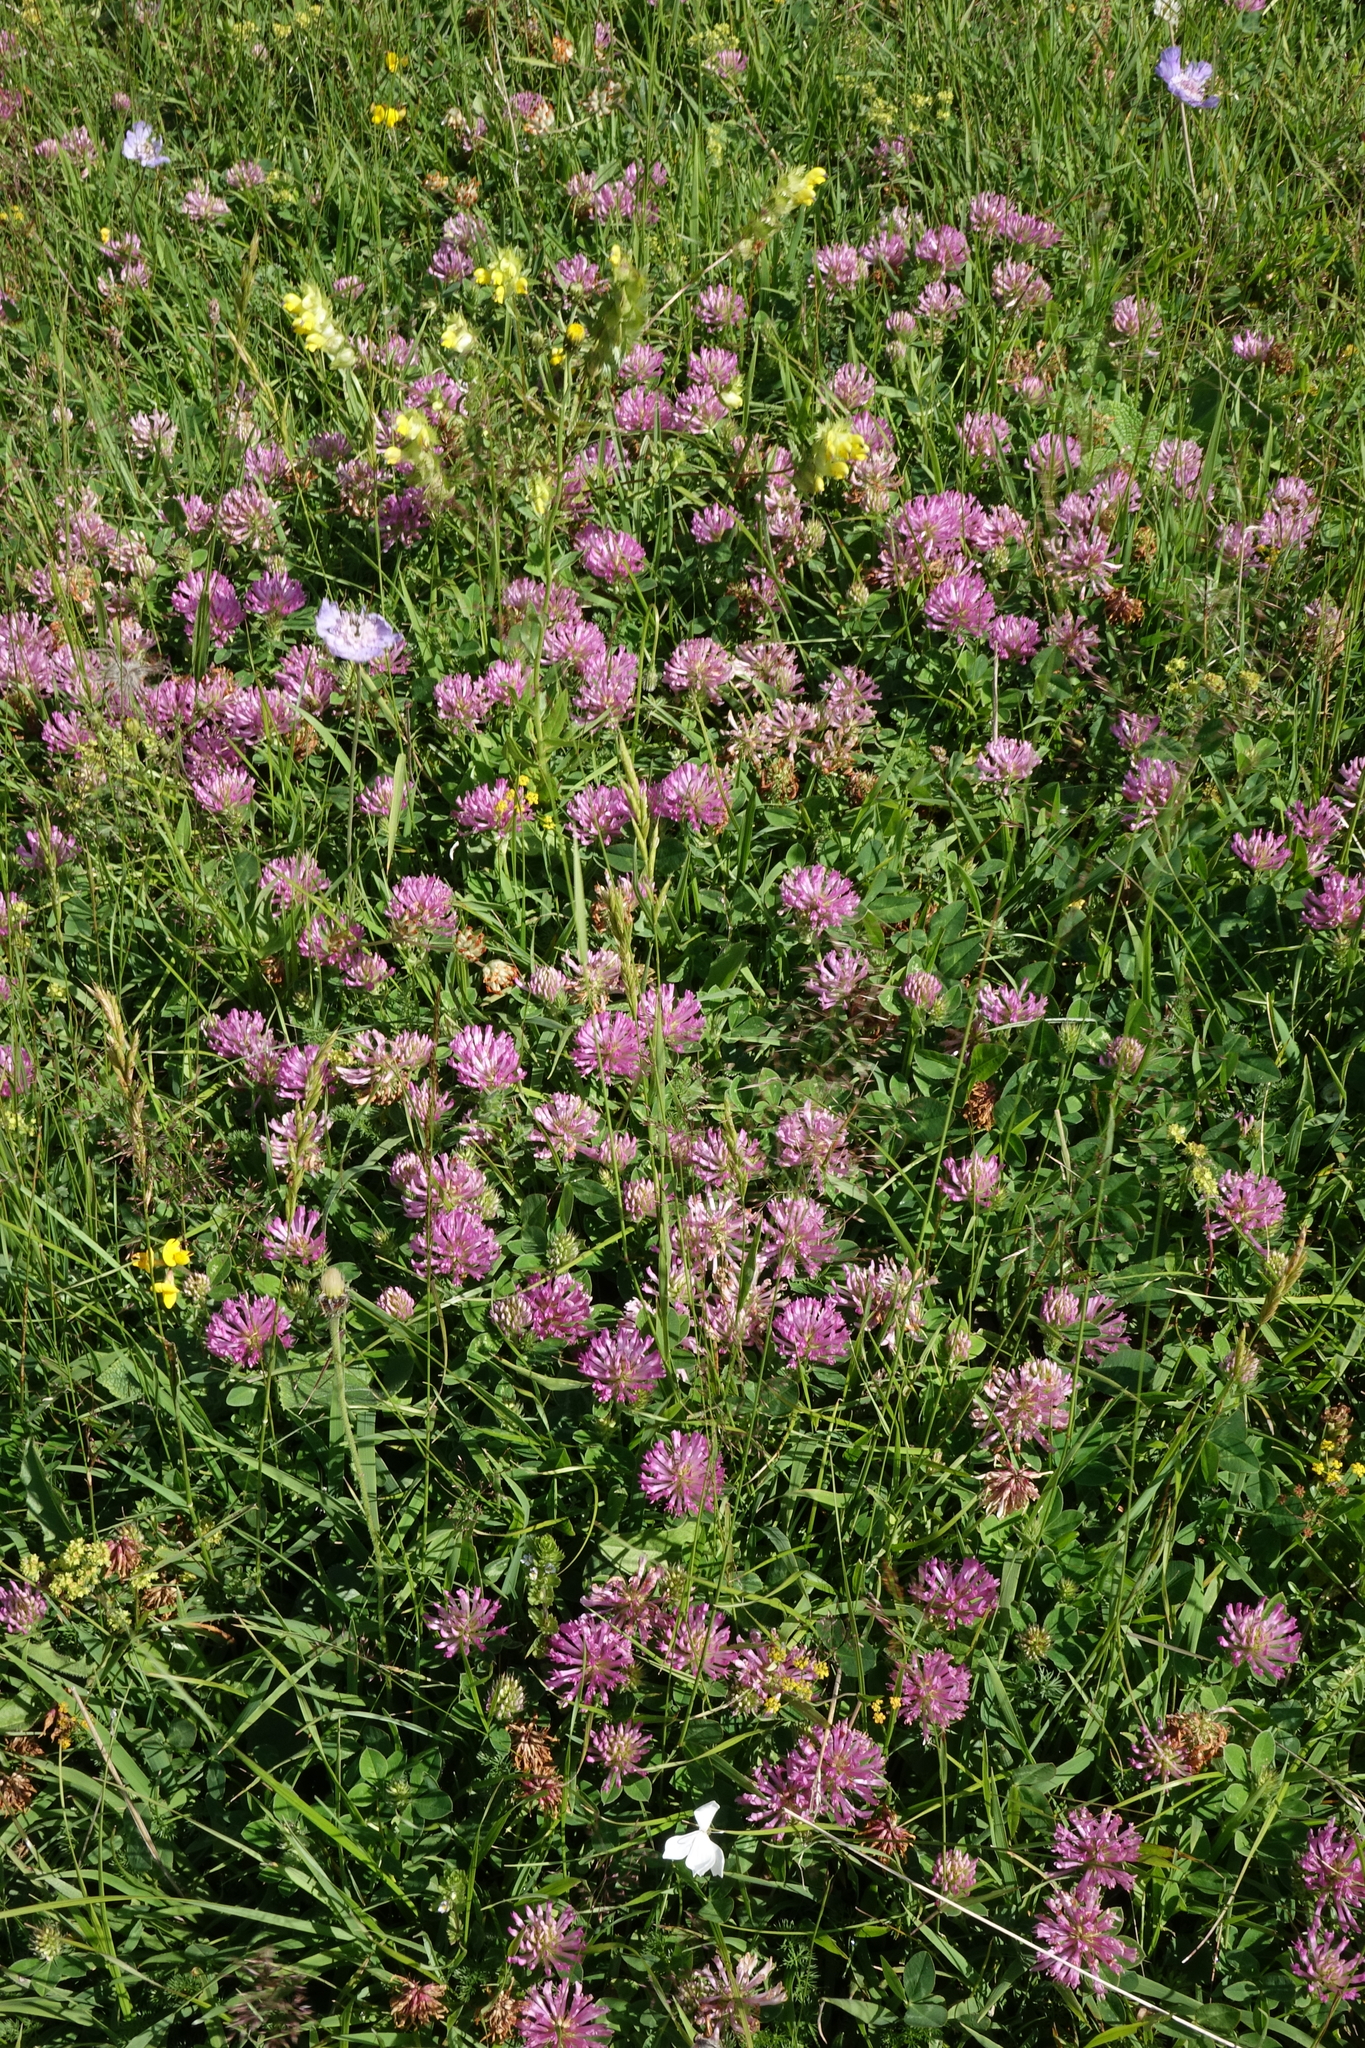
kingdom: Plantae
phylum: Tracheophyta
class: Magnoliopsida
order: Fabales
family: Fabaceae
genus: Trifolium
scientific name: Trifolium pratense
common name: Red clover
